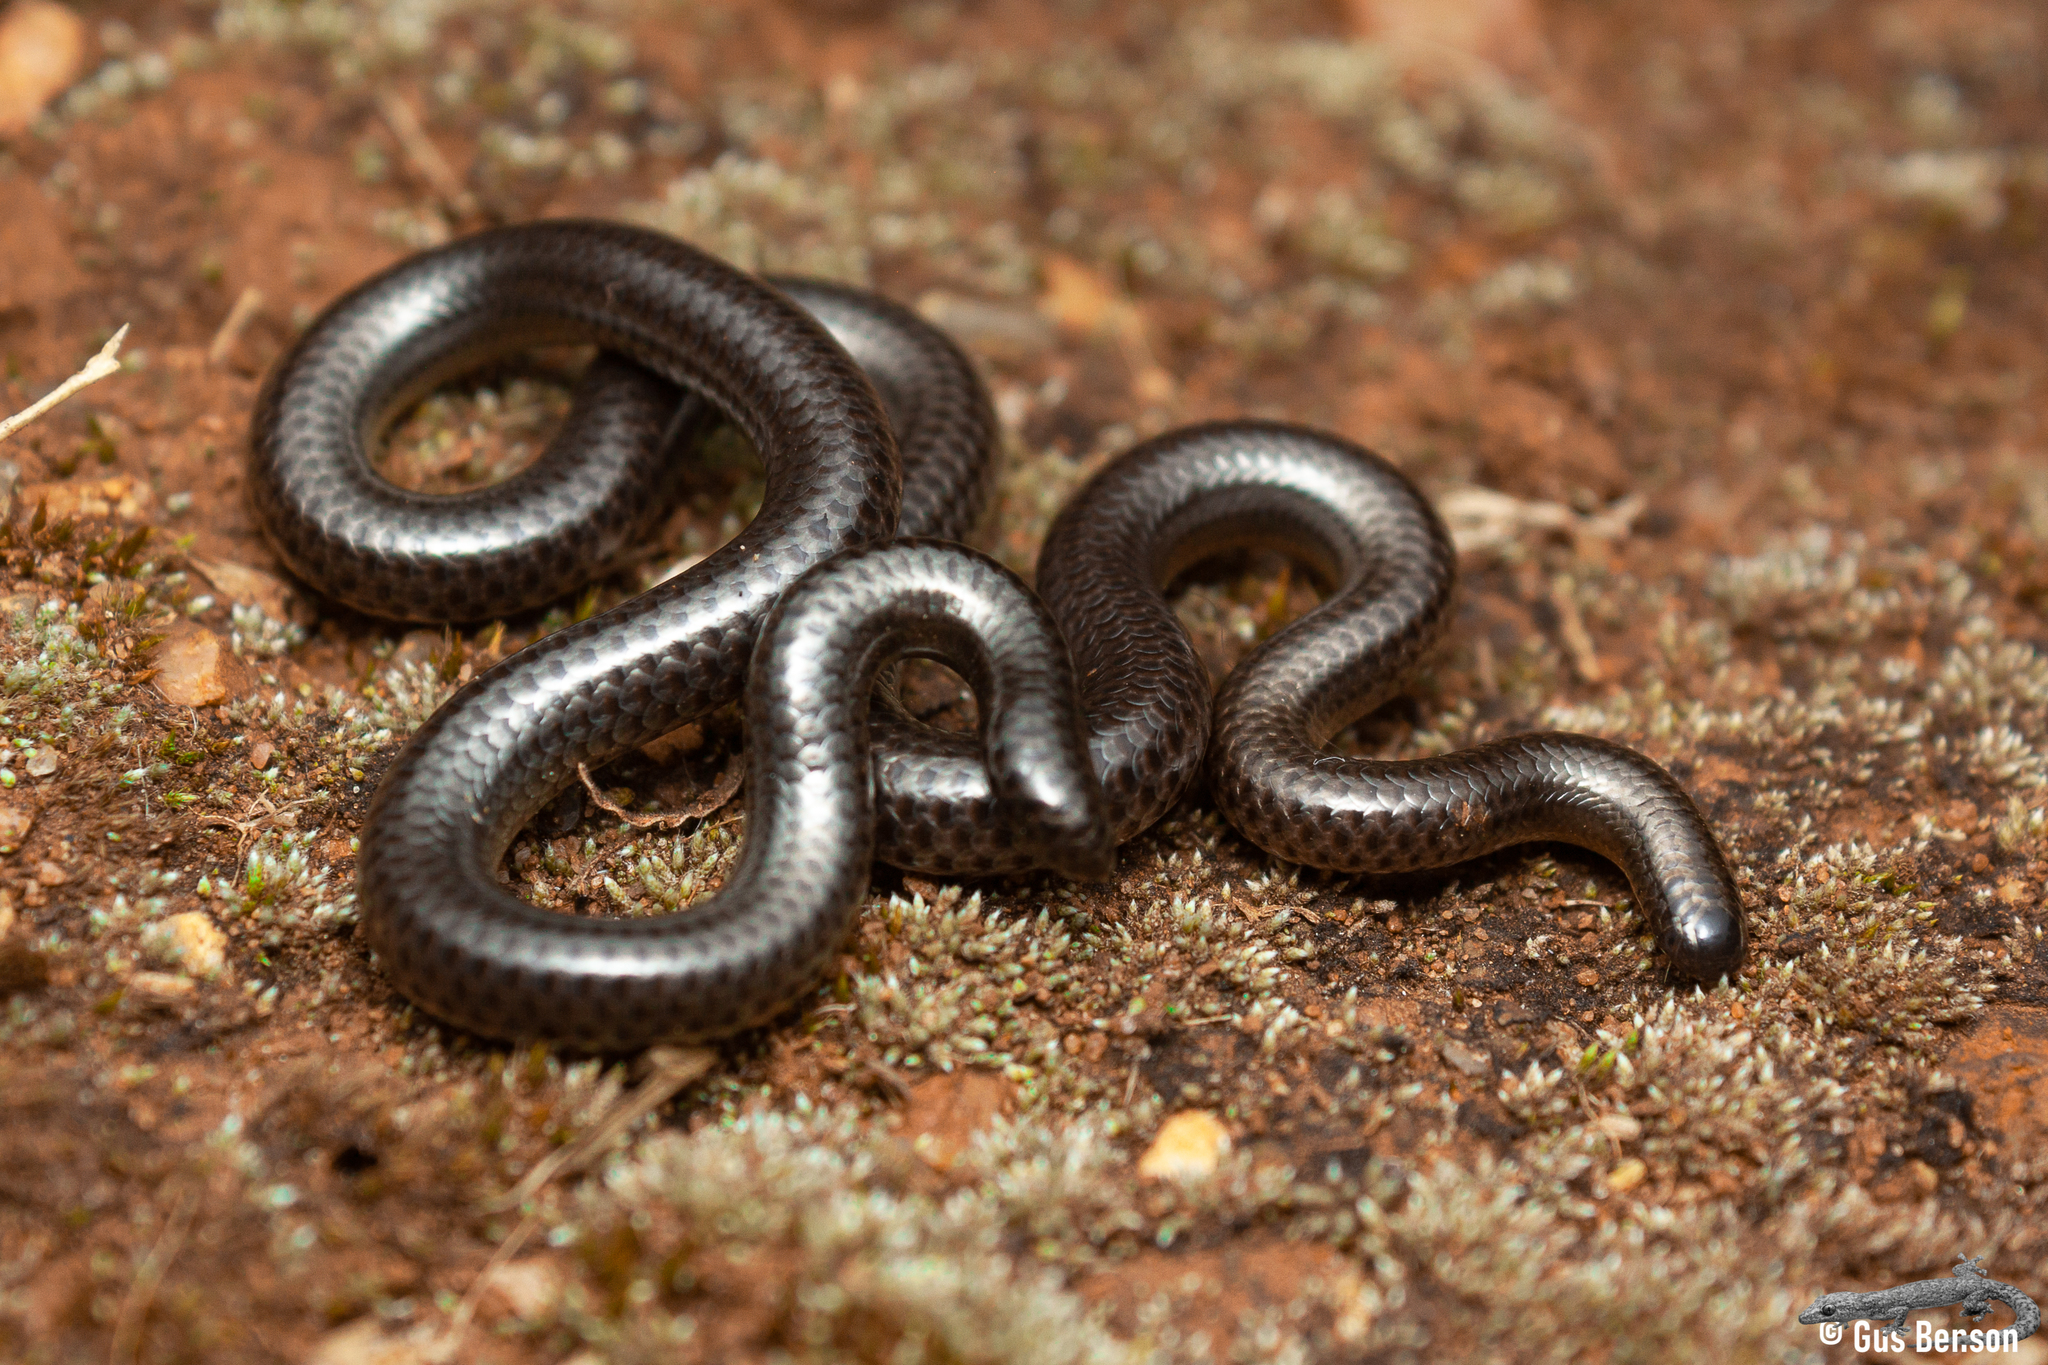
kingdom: Animalia
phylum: Chordata
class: Squamata
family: Leptotyphlopidae
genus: Leptotyphlops
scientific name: Leptotyphlops sylvicolus
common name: Forest thread snake
